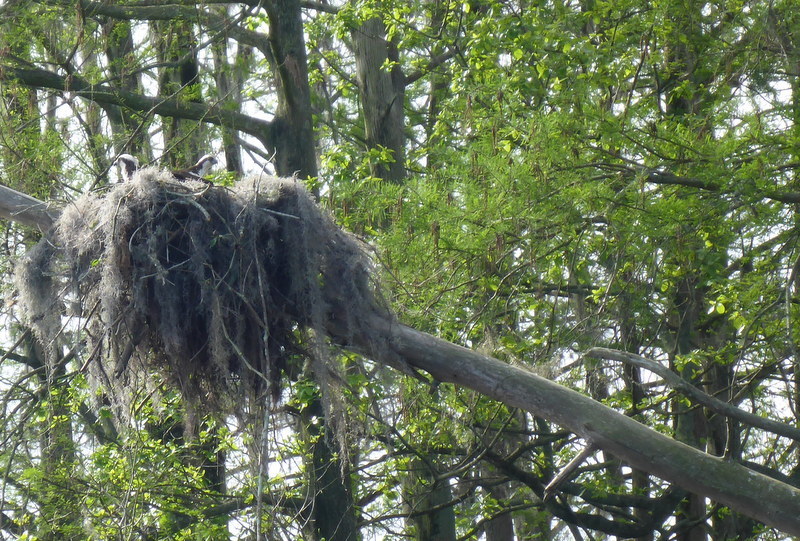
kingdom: Animalia
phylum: Chordata
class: Aves
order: Accipitriformes
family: Pandionidae
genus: Pandion
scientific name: Pandion haliaetus
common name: Osprey
